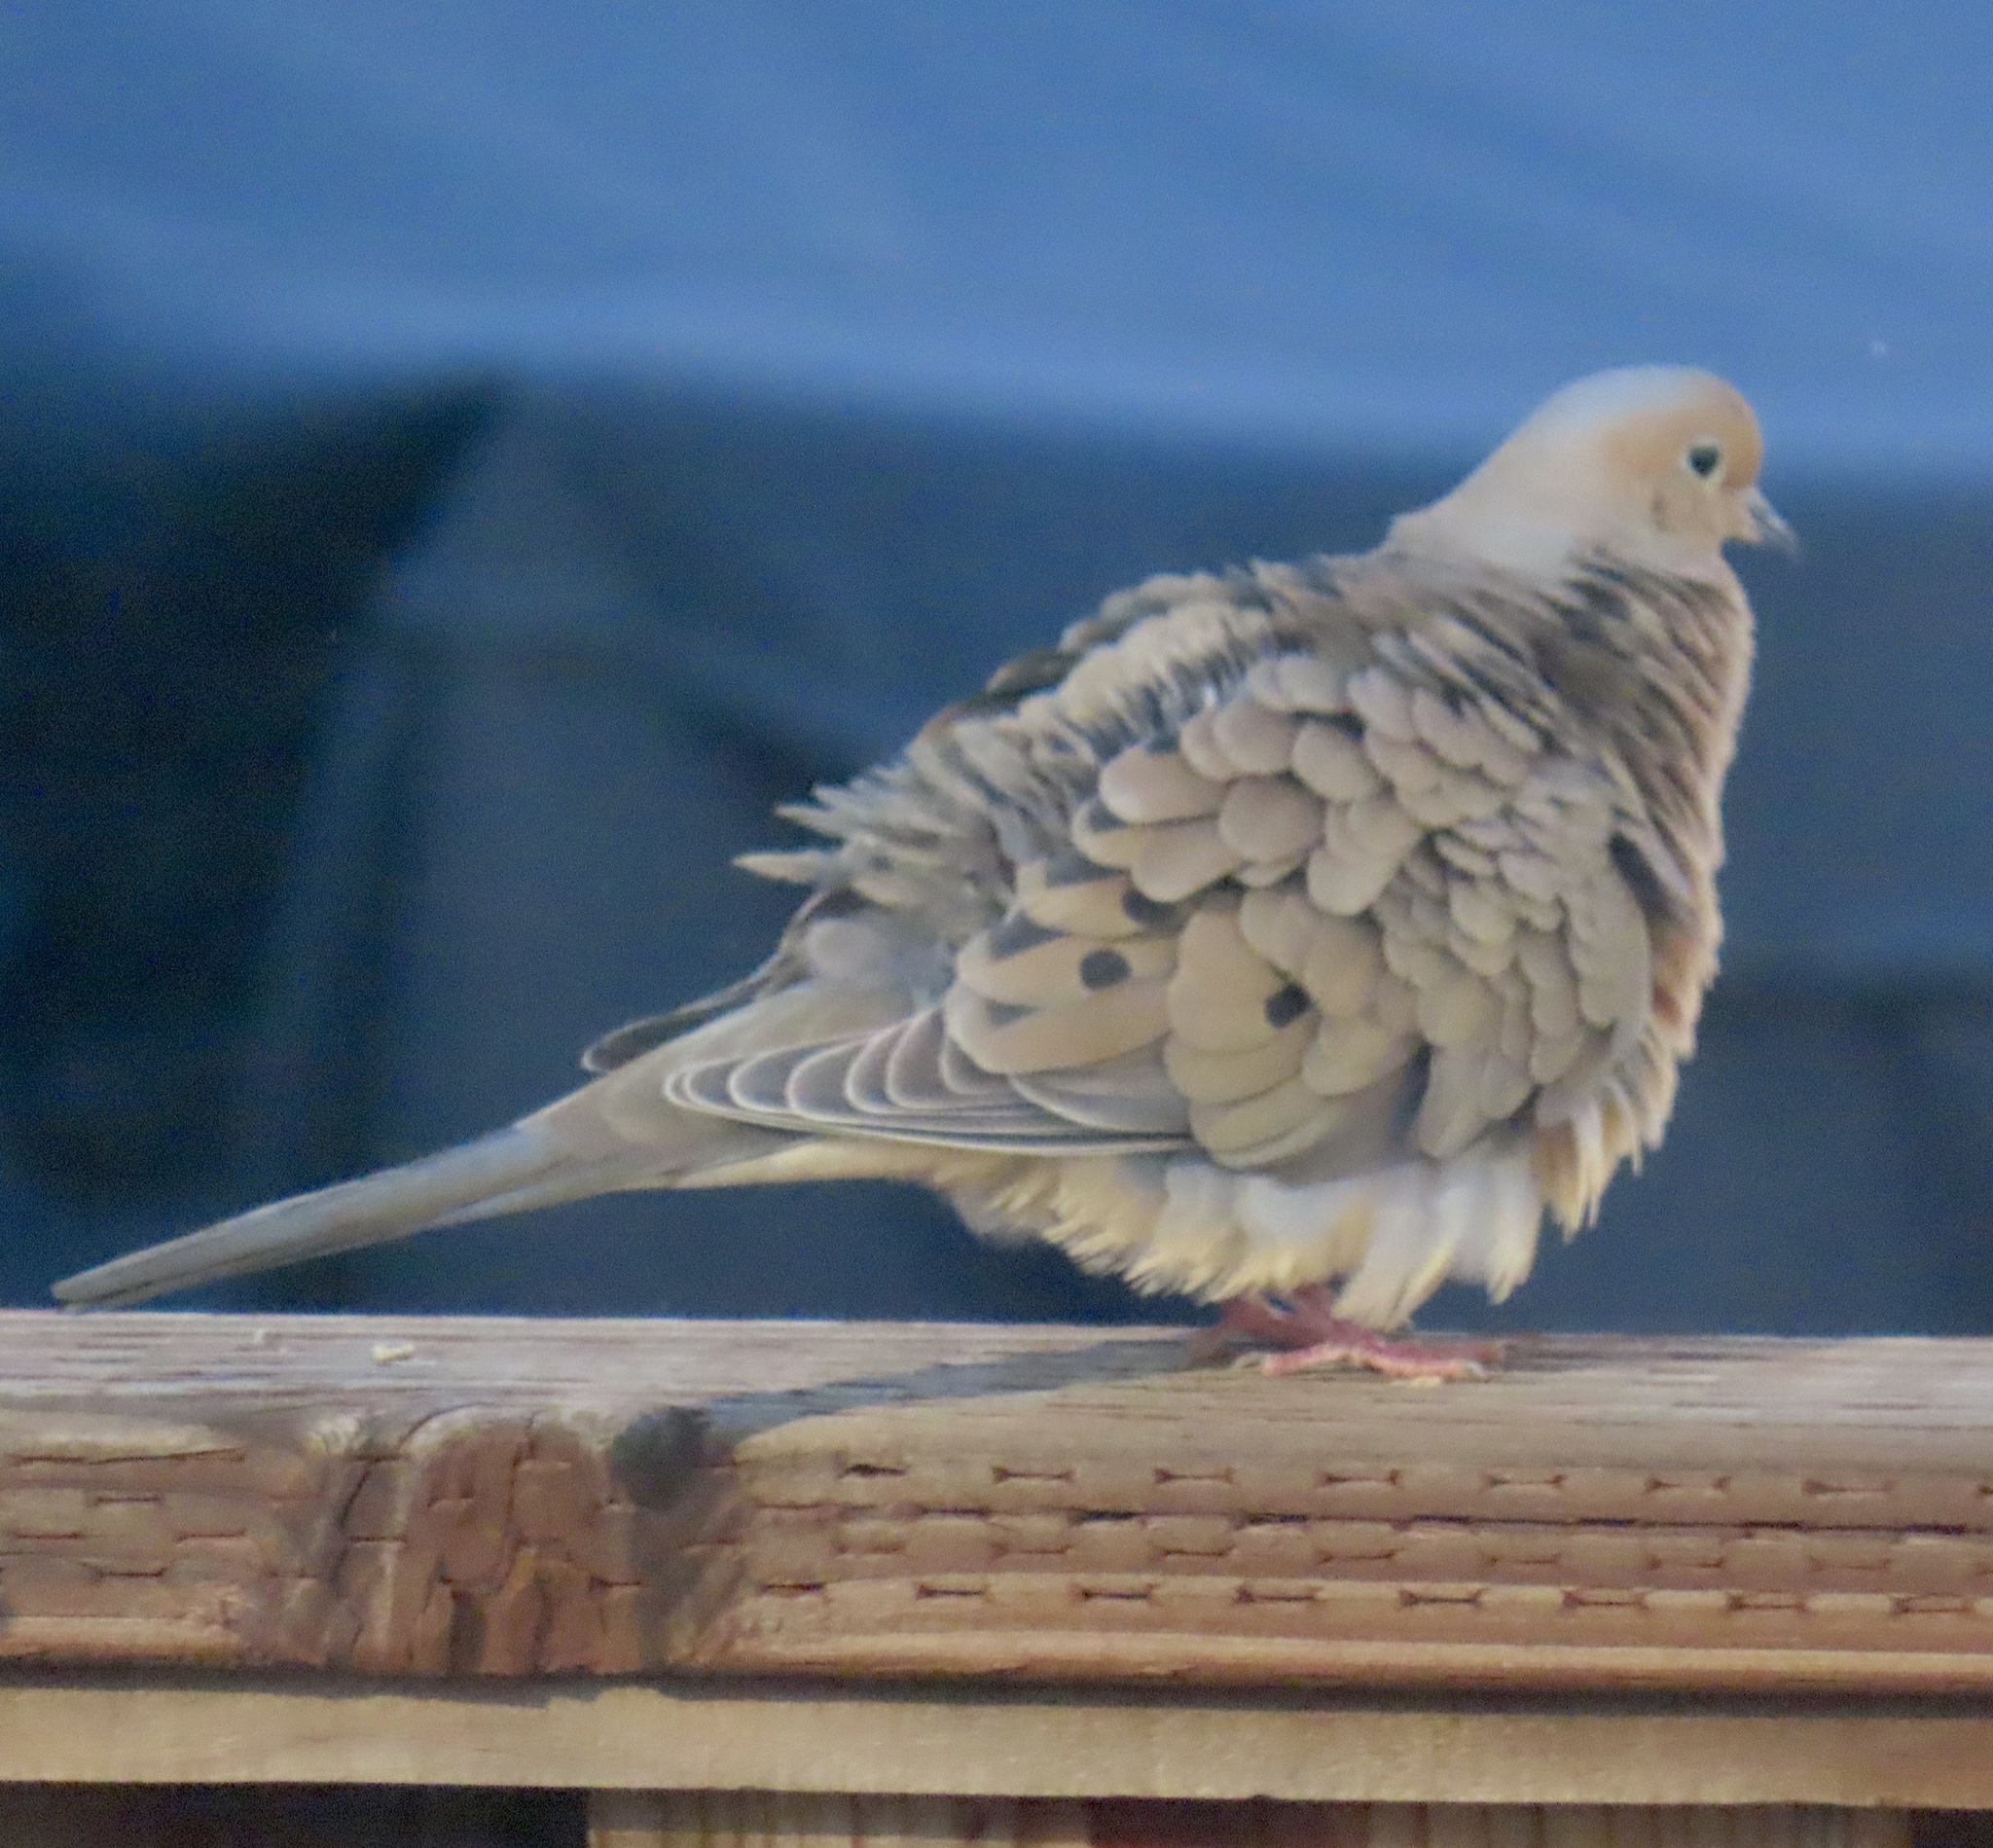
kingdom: Animalia
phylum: Chordata
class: Aves
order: Columbiformes
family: Columbidae
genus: Zenaida
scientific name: Zenaida macroura
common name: Mourning dove
